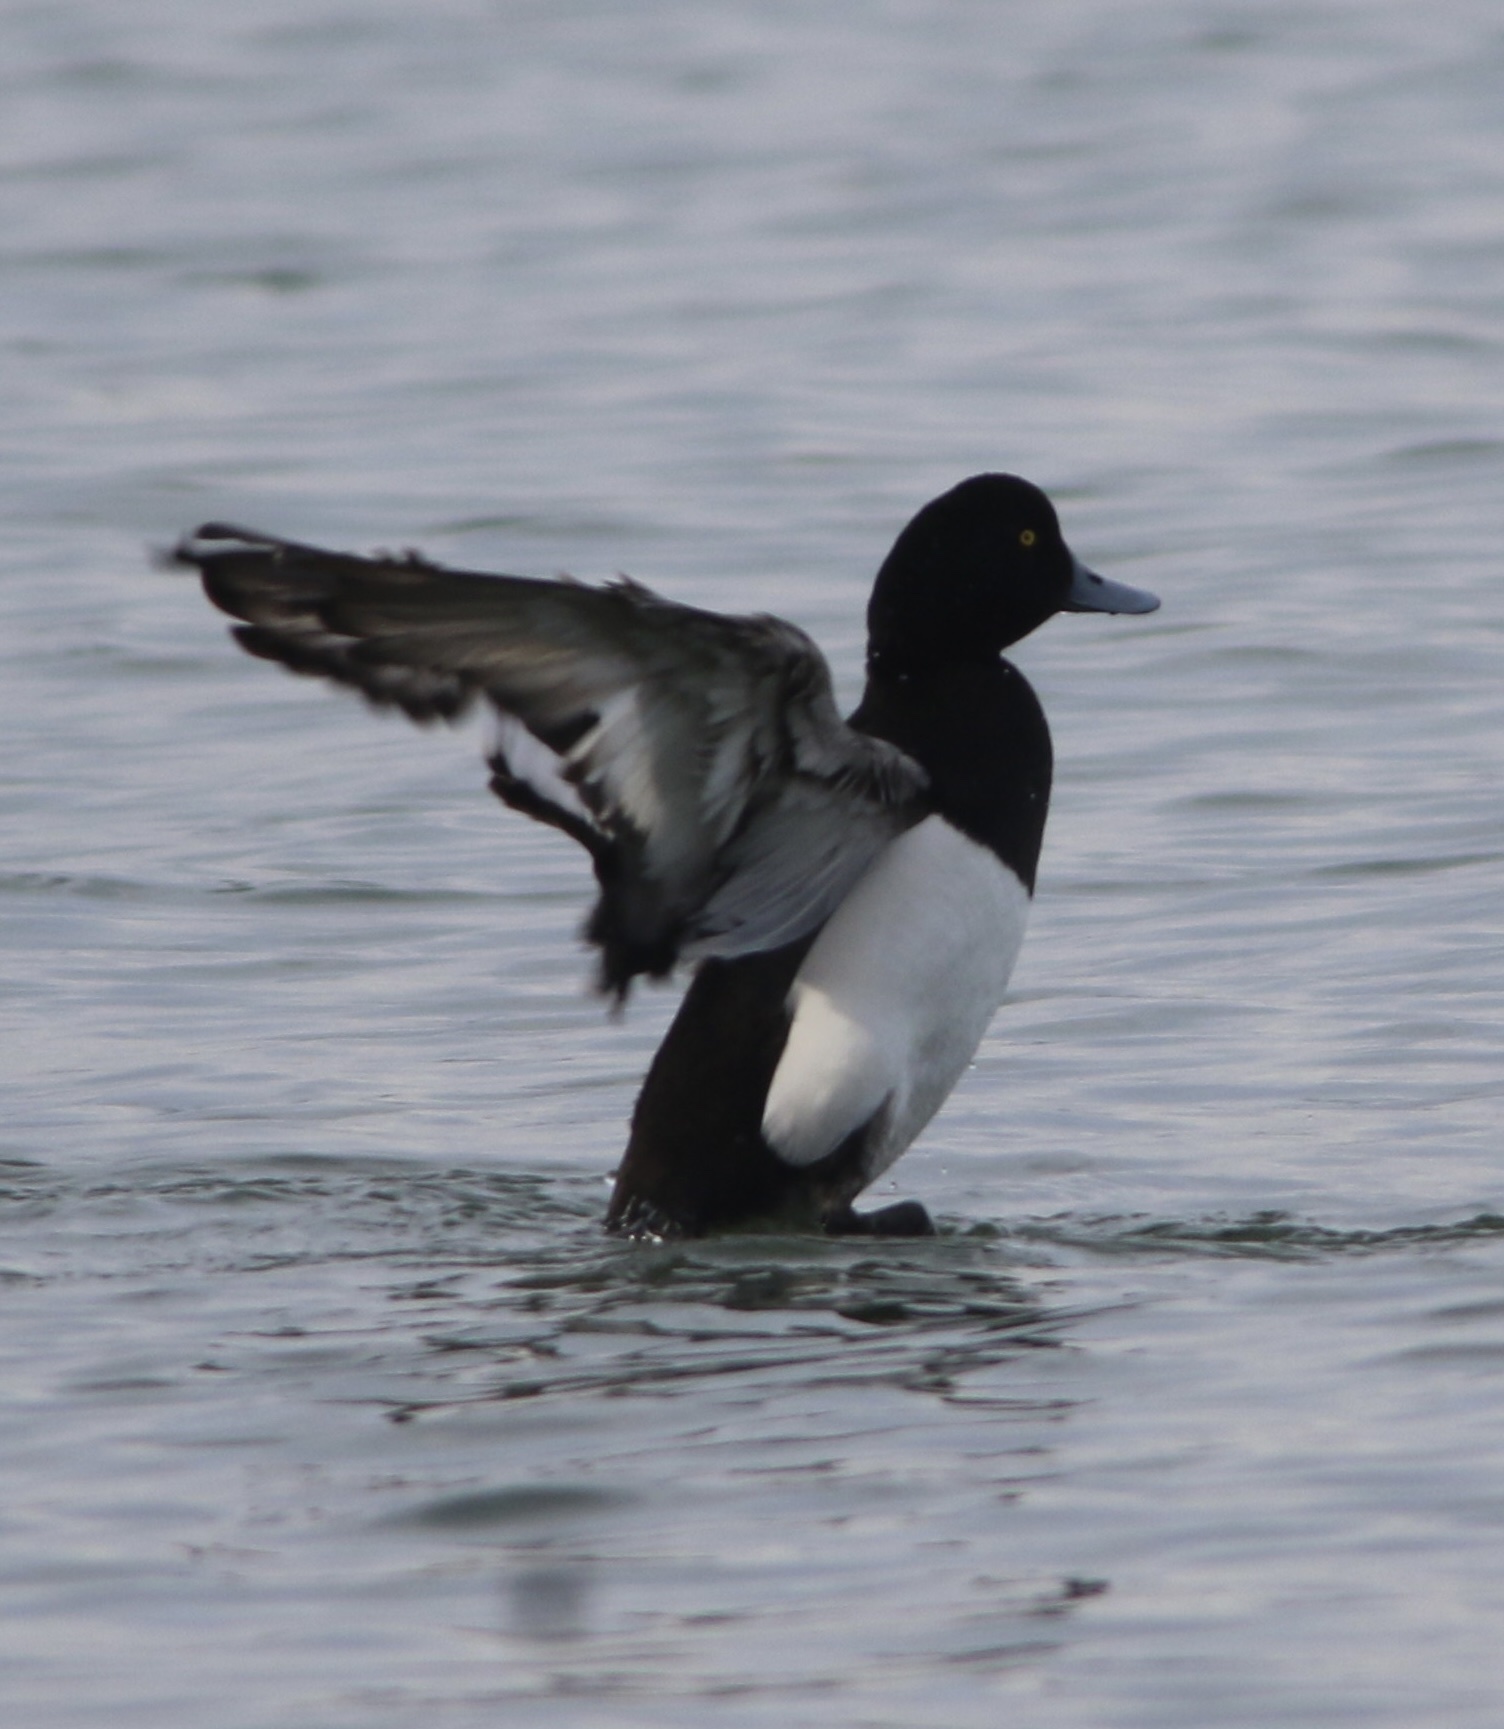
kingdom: Animalia
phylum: Chordata
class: Aves
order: Anseriformes
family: Anatidae
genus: Aythya
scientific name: Aythya marila
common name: Greater scaup
